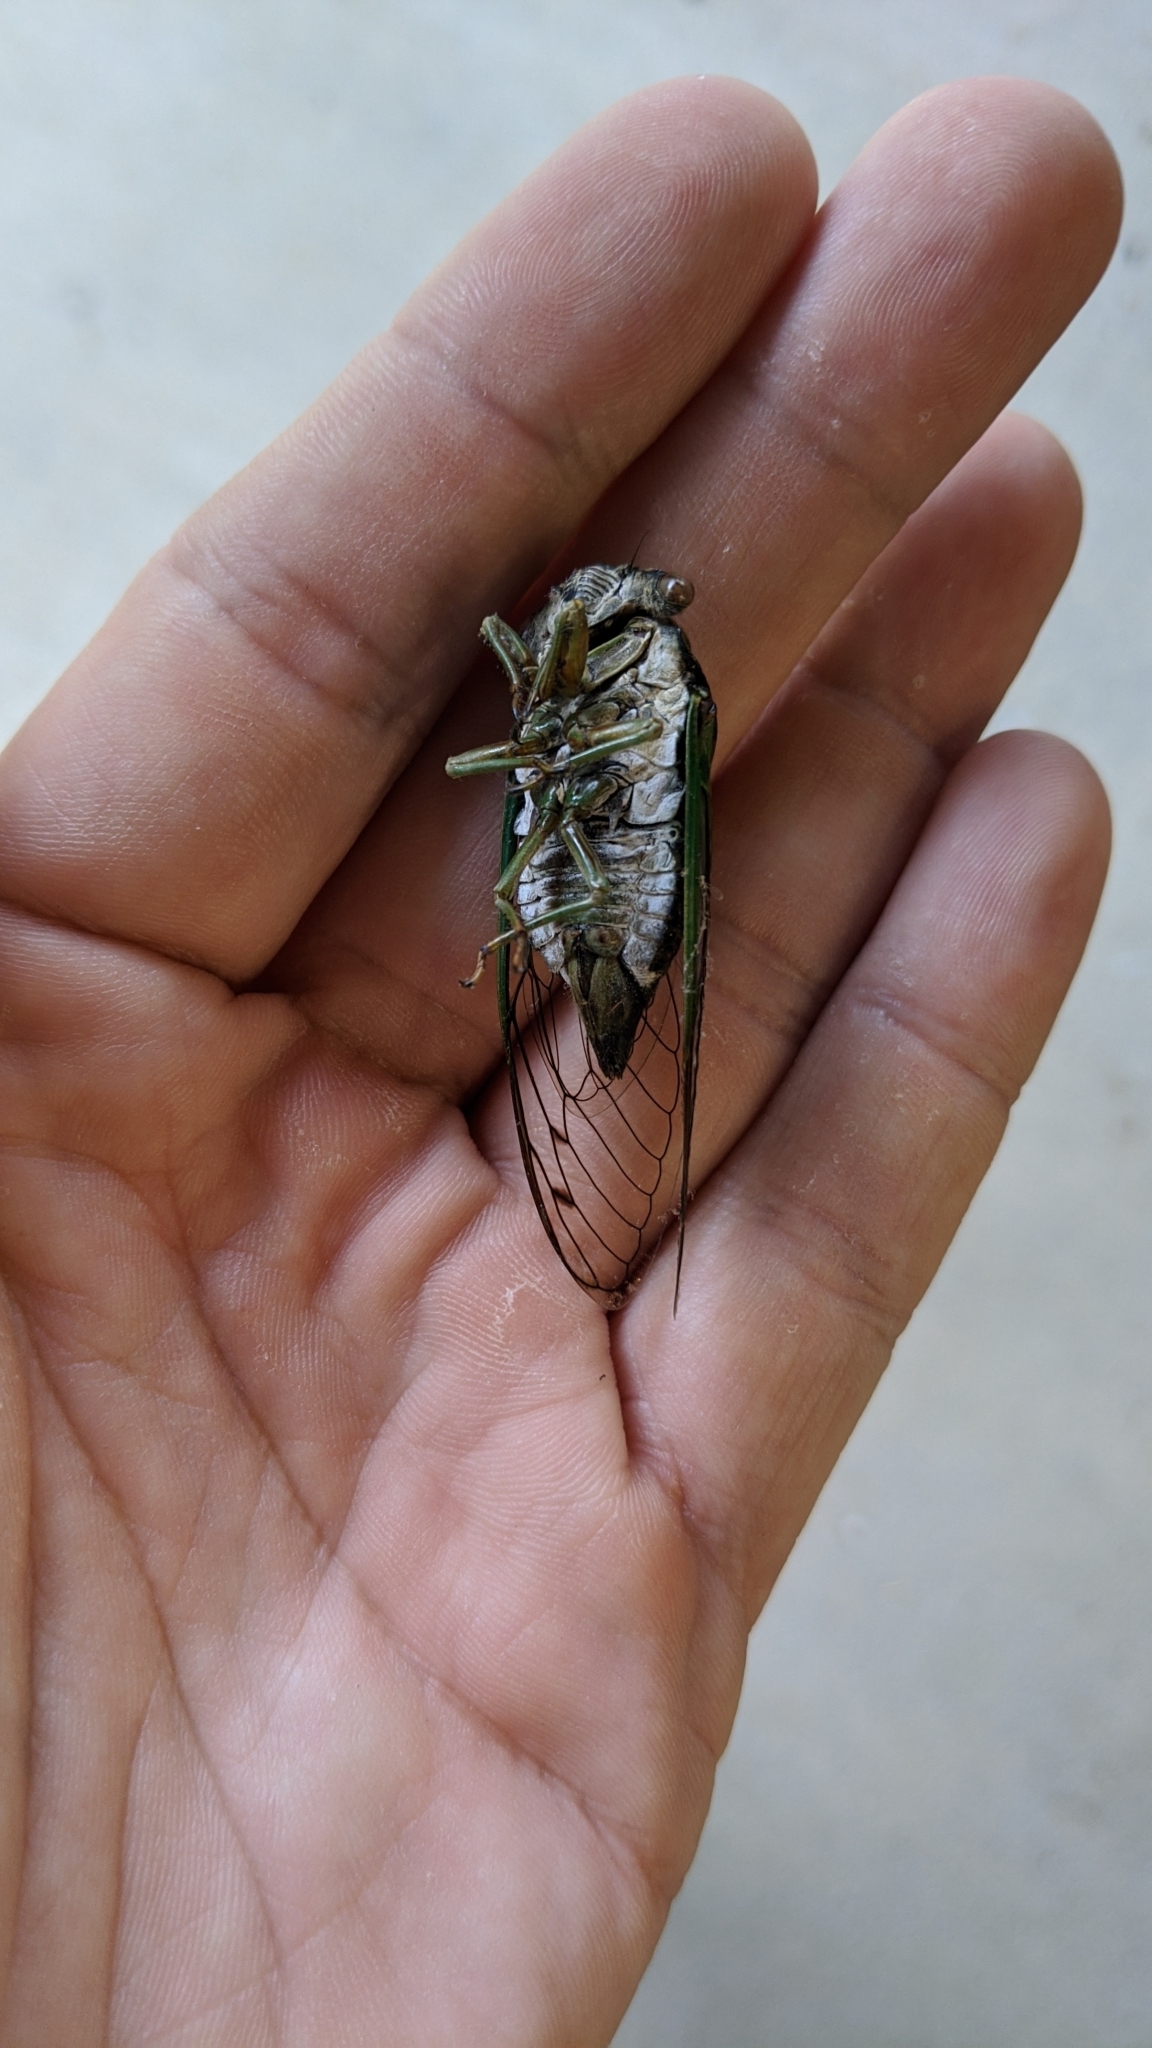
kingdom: Animalia
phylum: Arthropoda
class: Insecta
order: Hemiptera
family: Cicadidae
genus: Neotibicen
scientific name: Neotibicen tibicen
